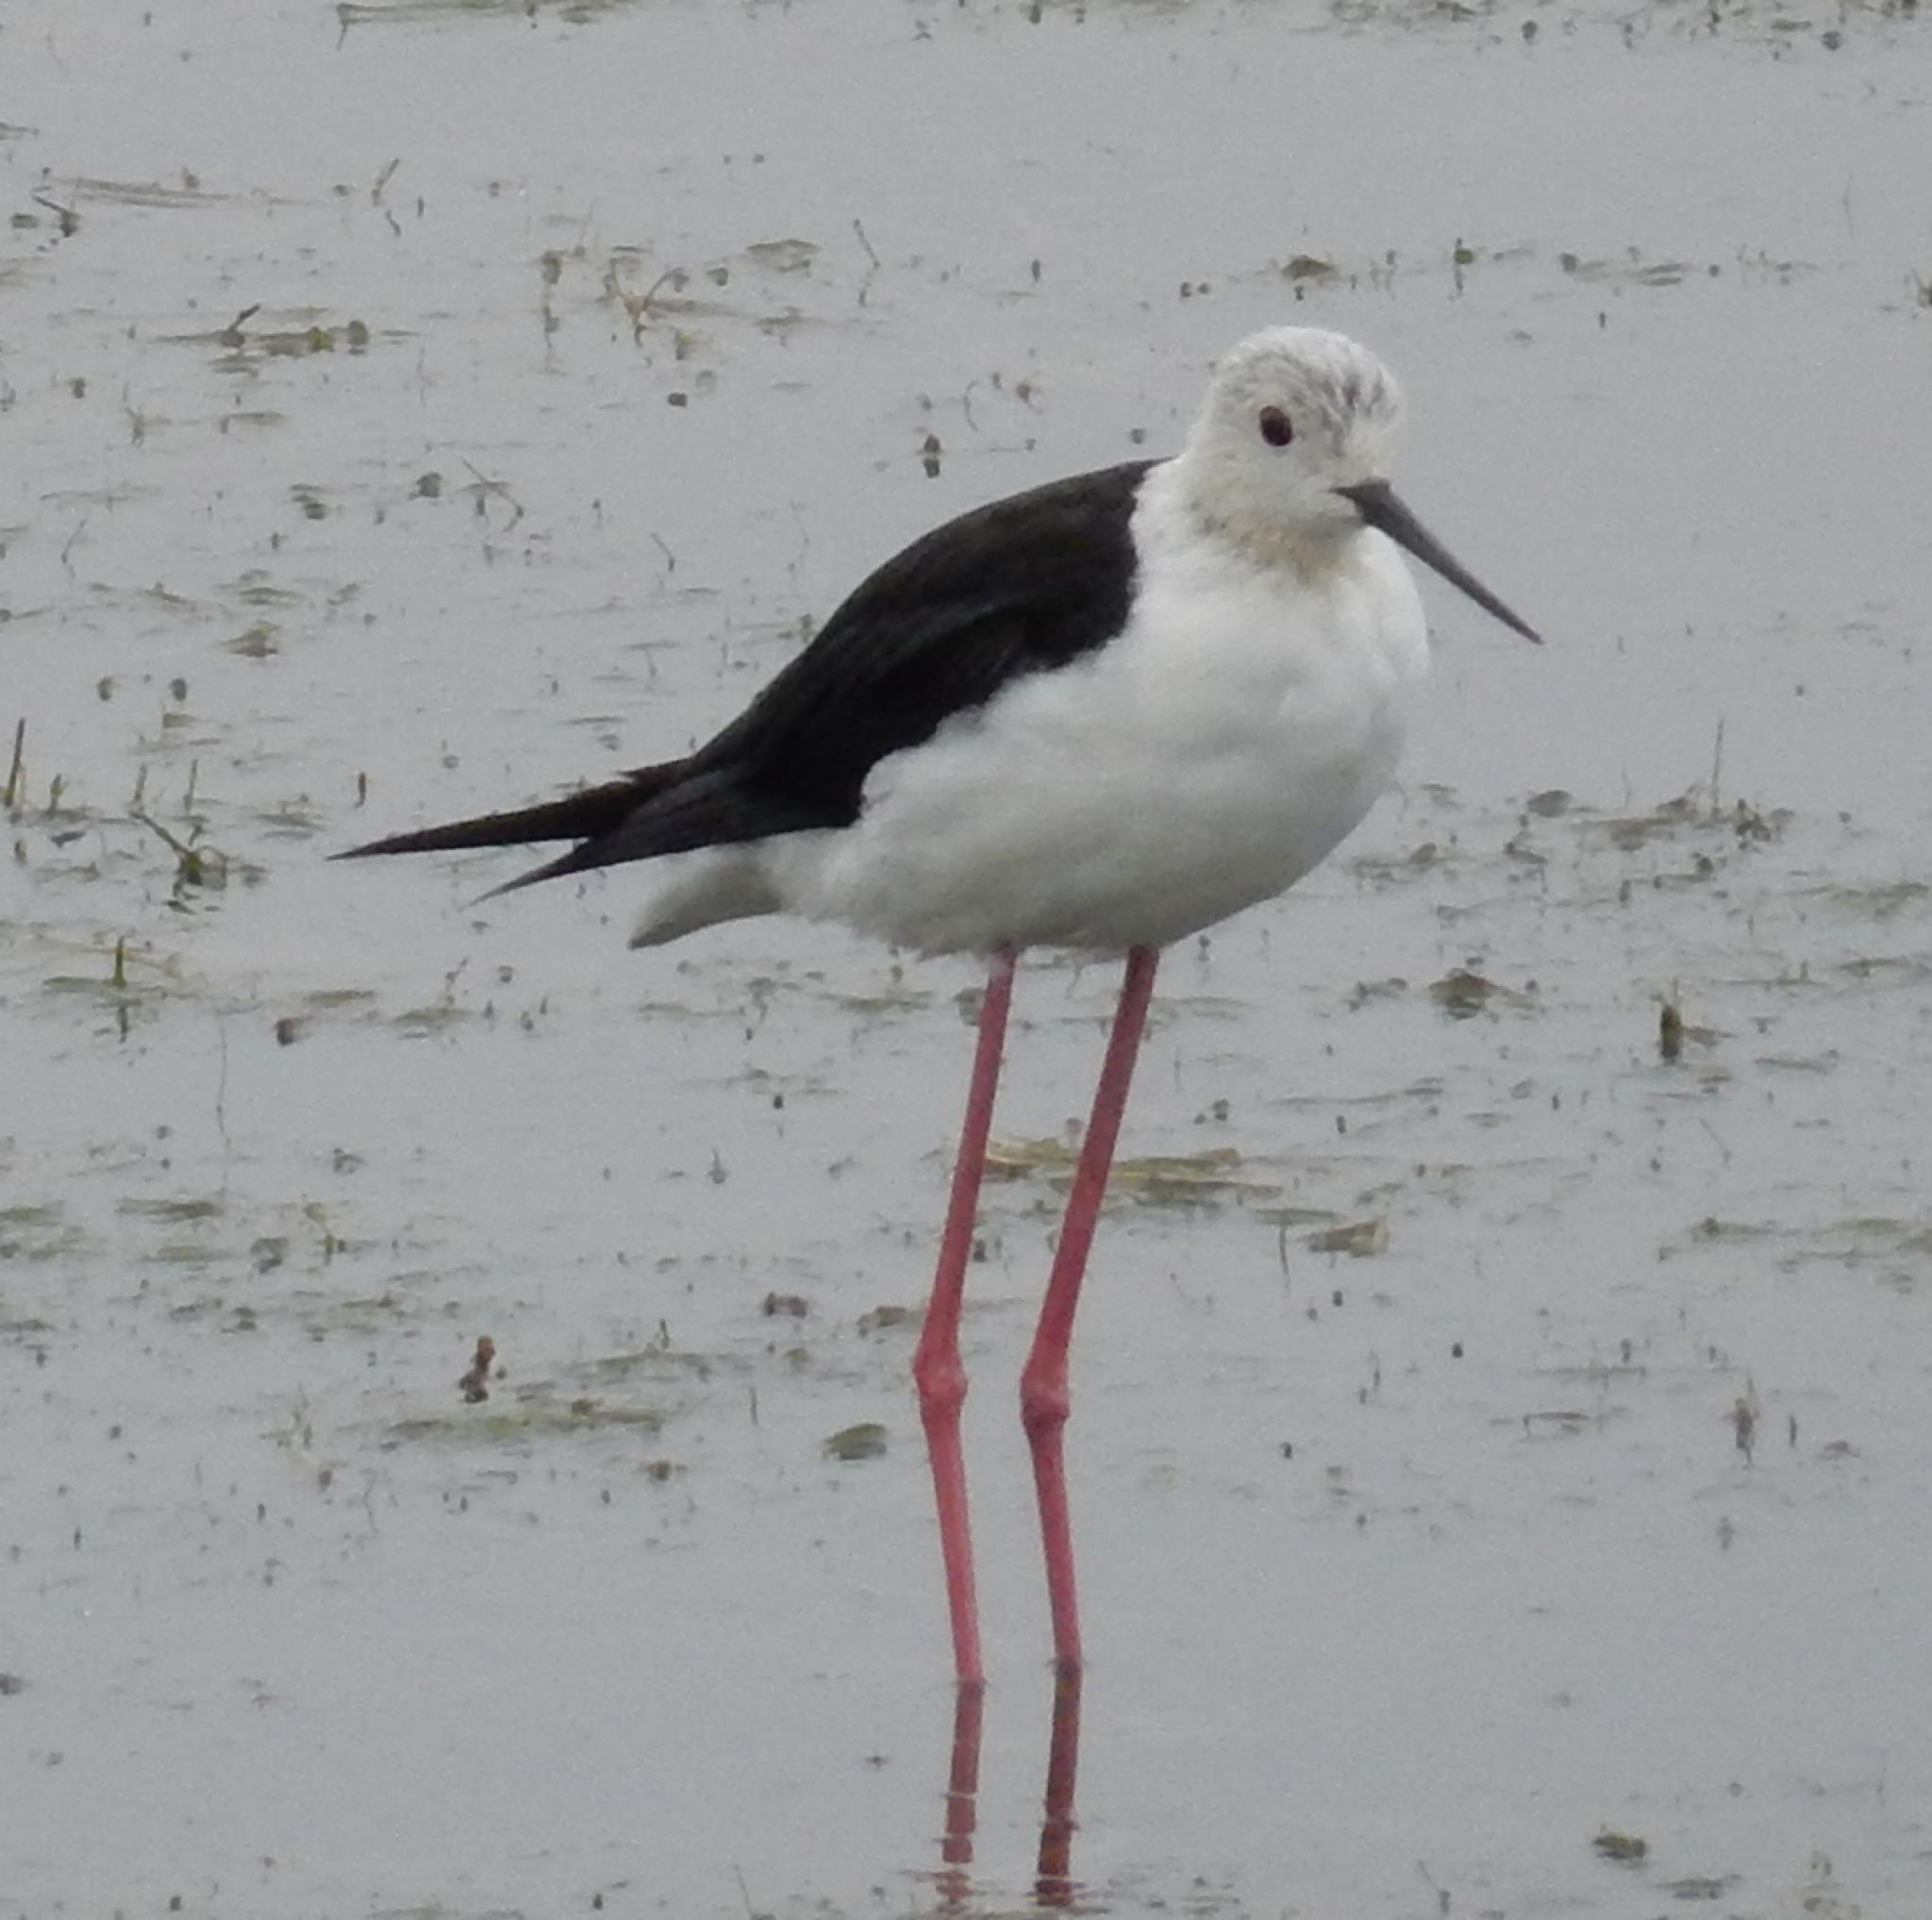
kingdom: Animalia
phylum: Chordata
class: Aves
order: Charadriiformes
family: Recurvirostridae
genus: Himantopus
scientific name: Himantopus himantopus
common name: Black-winged stilt
